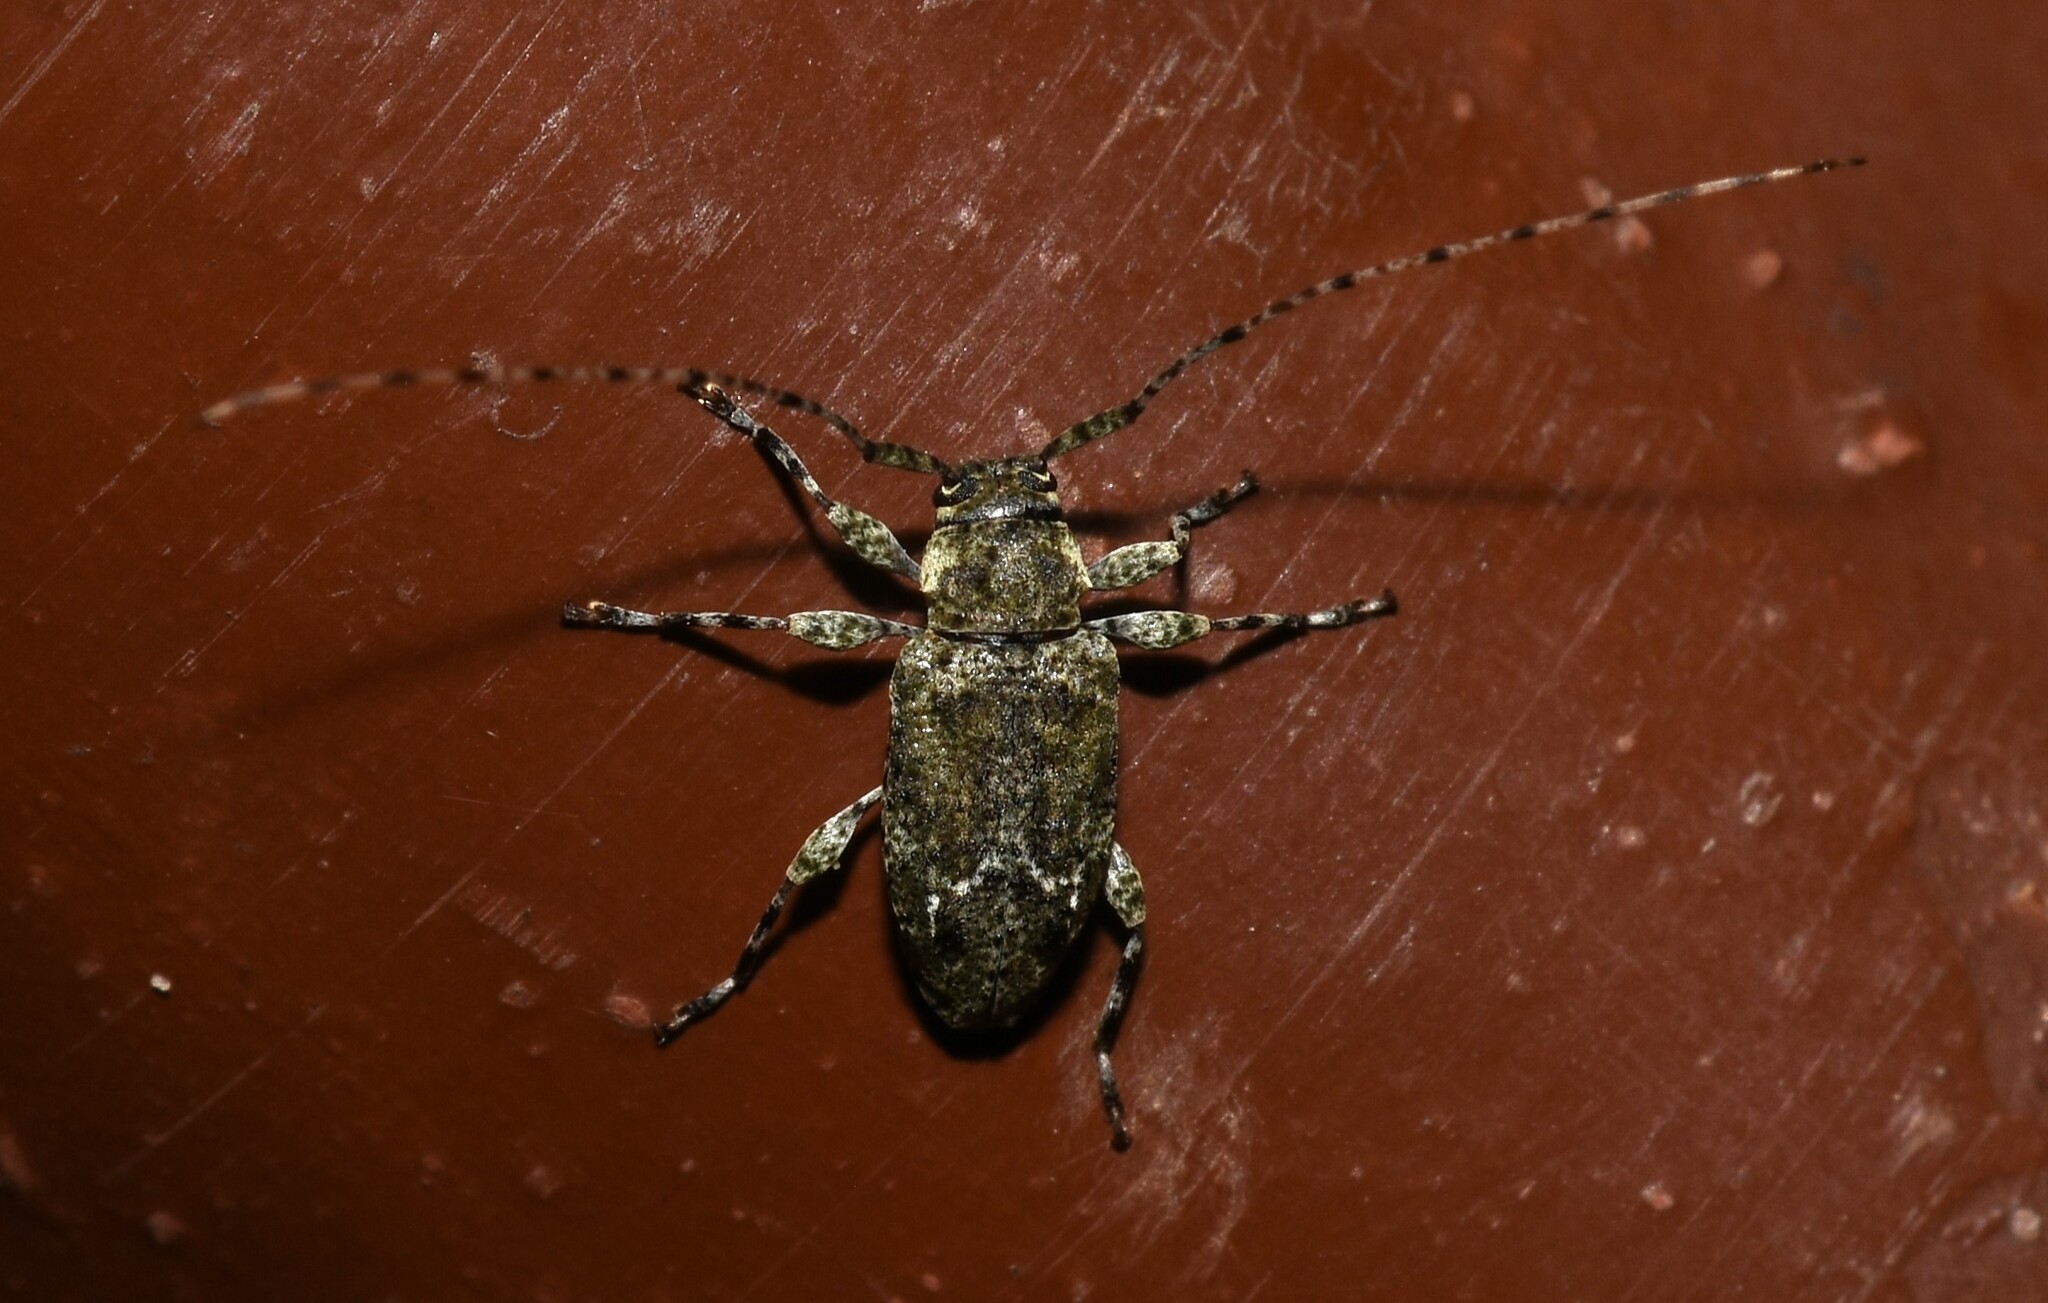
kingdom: Animalia
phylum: Arthropoda
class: Insecta
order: Coleoptera
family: Cerambycidae
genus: Astylidius
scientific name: Astylidius parvus
